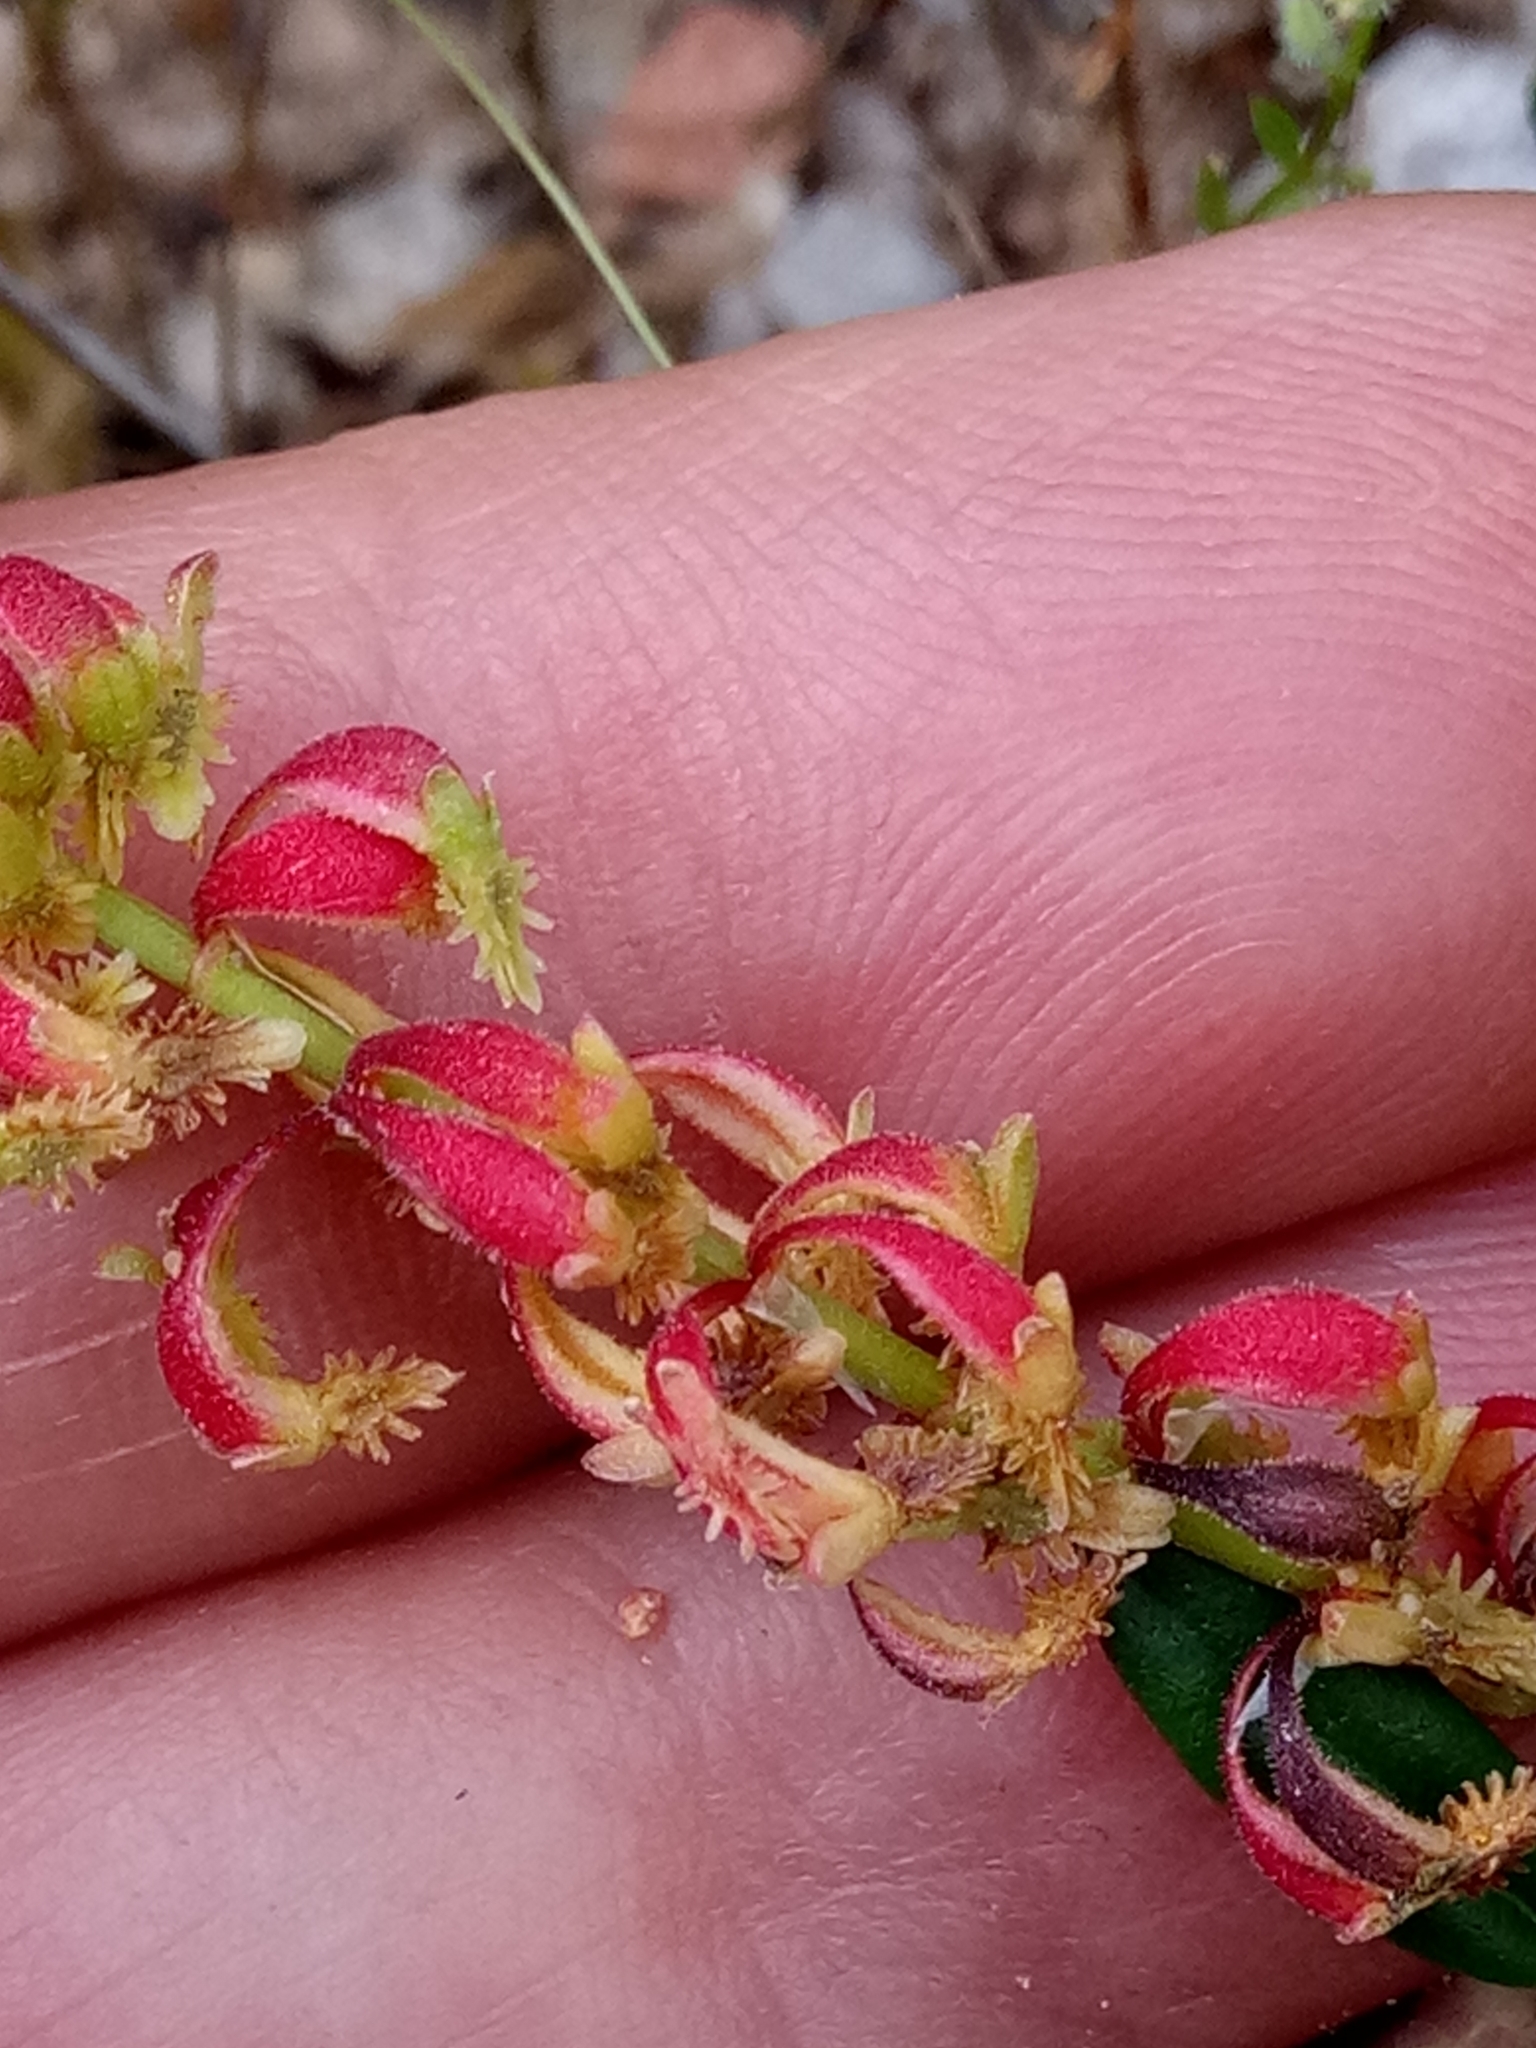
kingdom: Plantae
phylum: Tracheophyta
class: Magnoliopsida
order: Caryophyllales
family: Polygonaceae
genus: Rumex
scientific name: Rumex bucephalophorus
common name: Red dock
